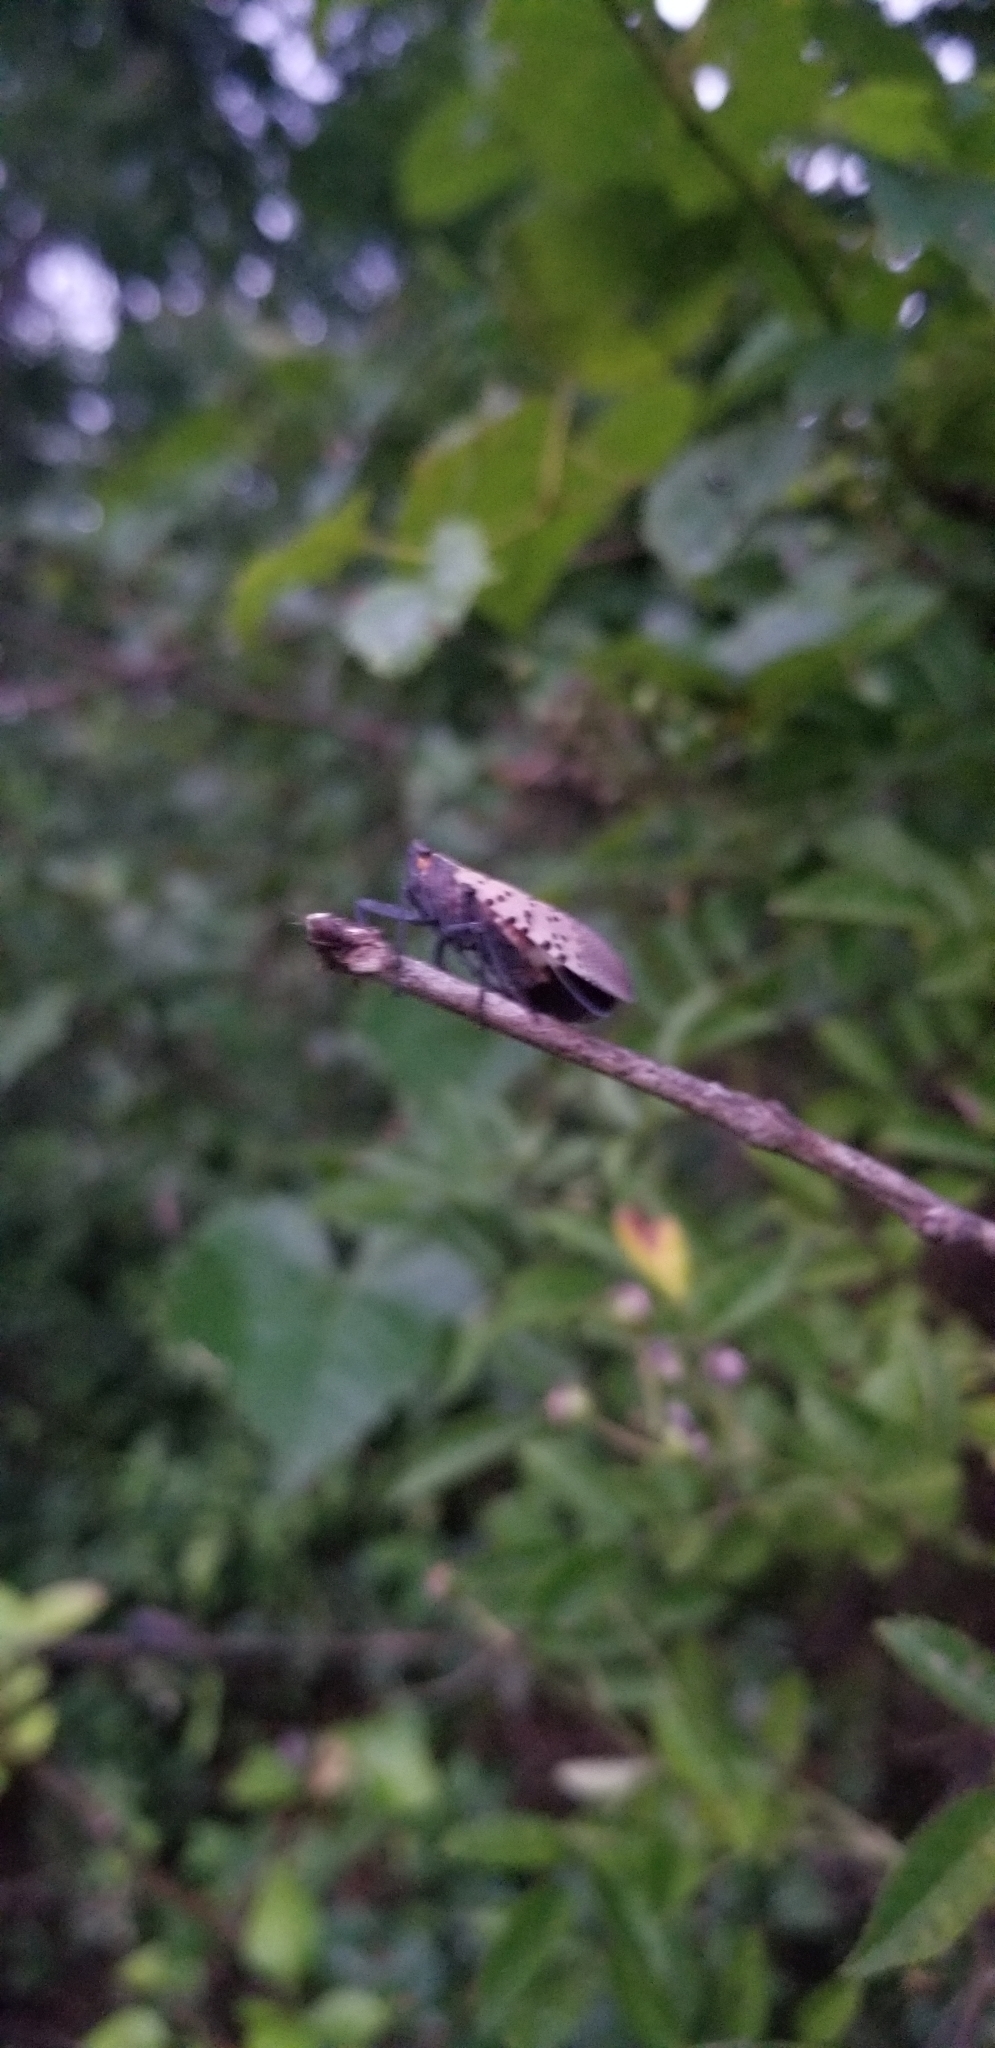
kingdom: Animalia
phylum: Arthropoda
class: Insecta
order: Hemiptera
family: Fulgoridae
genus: Lycorma
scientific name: Lycorma delicatula
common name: Spotted lanternfly
